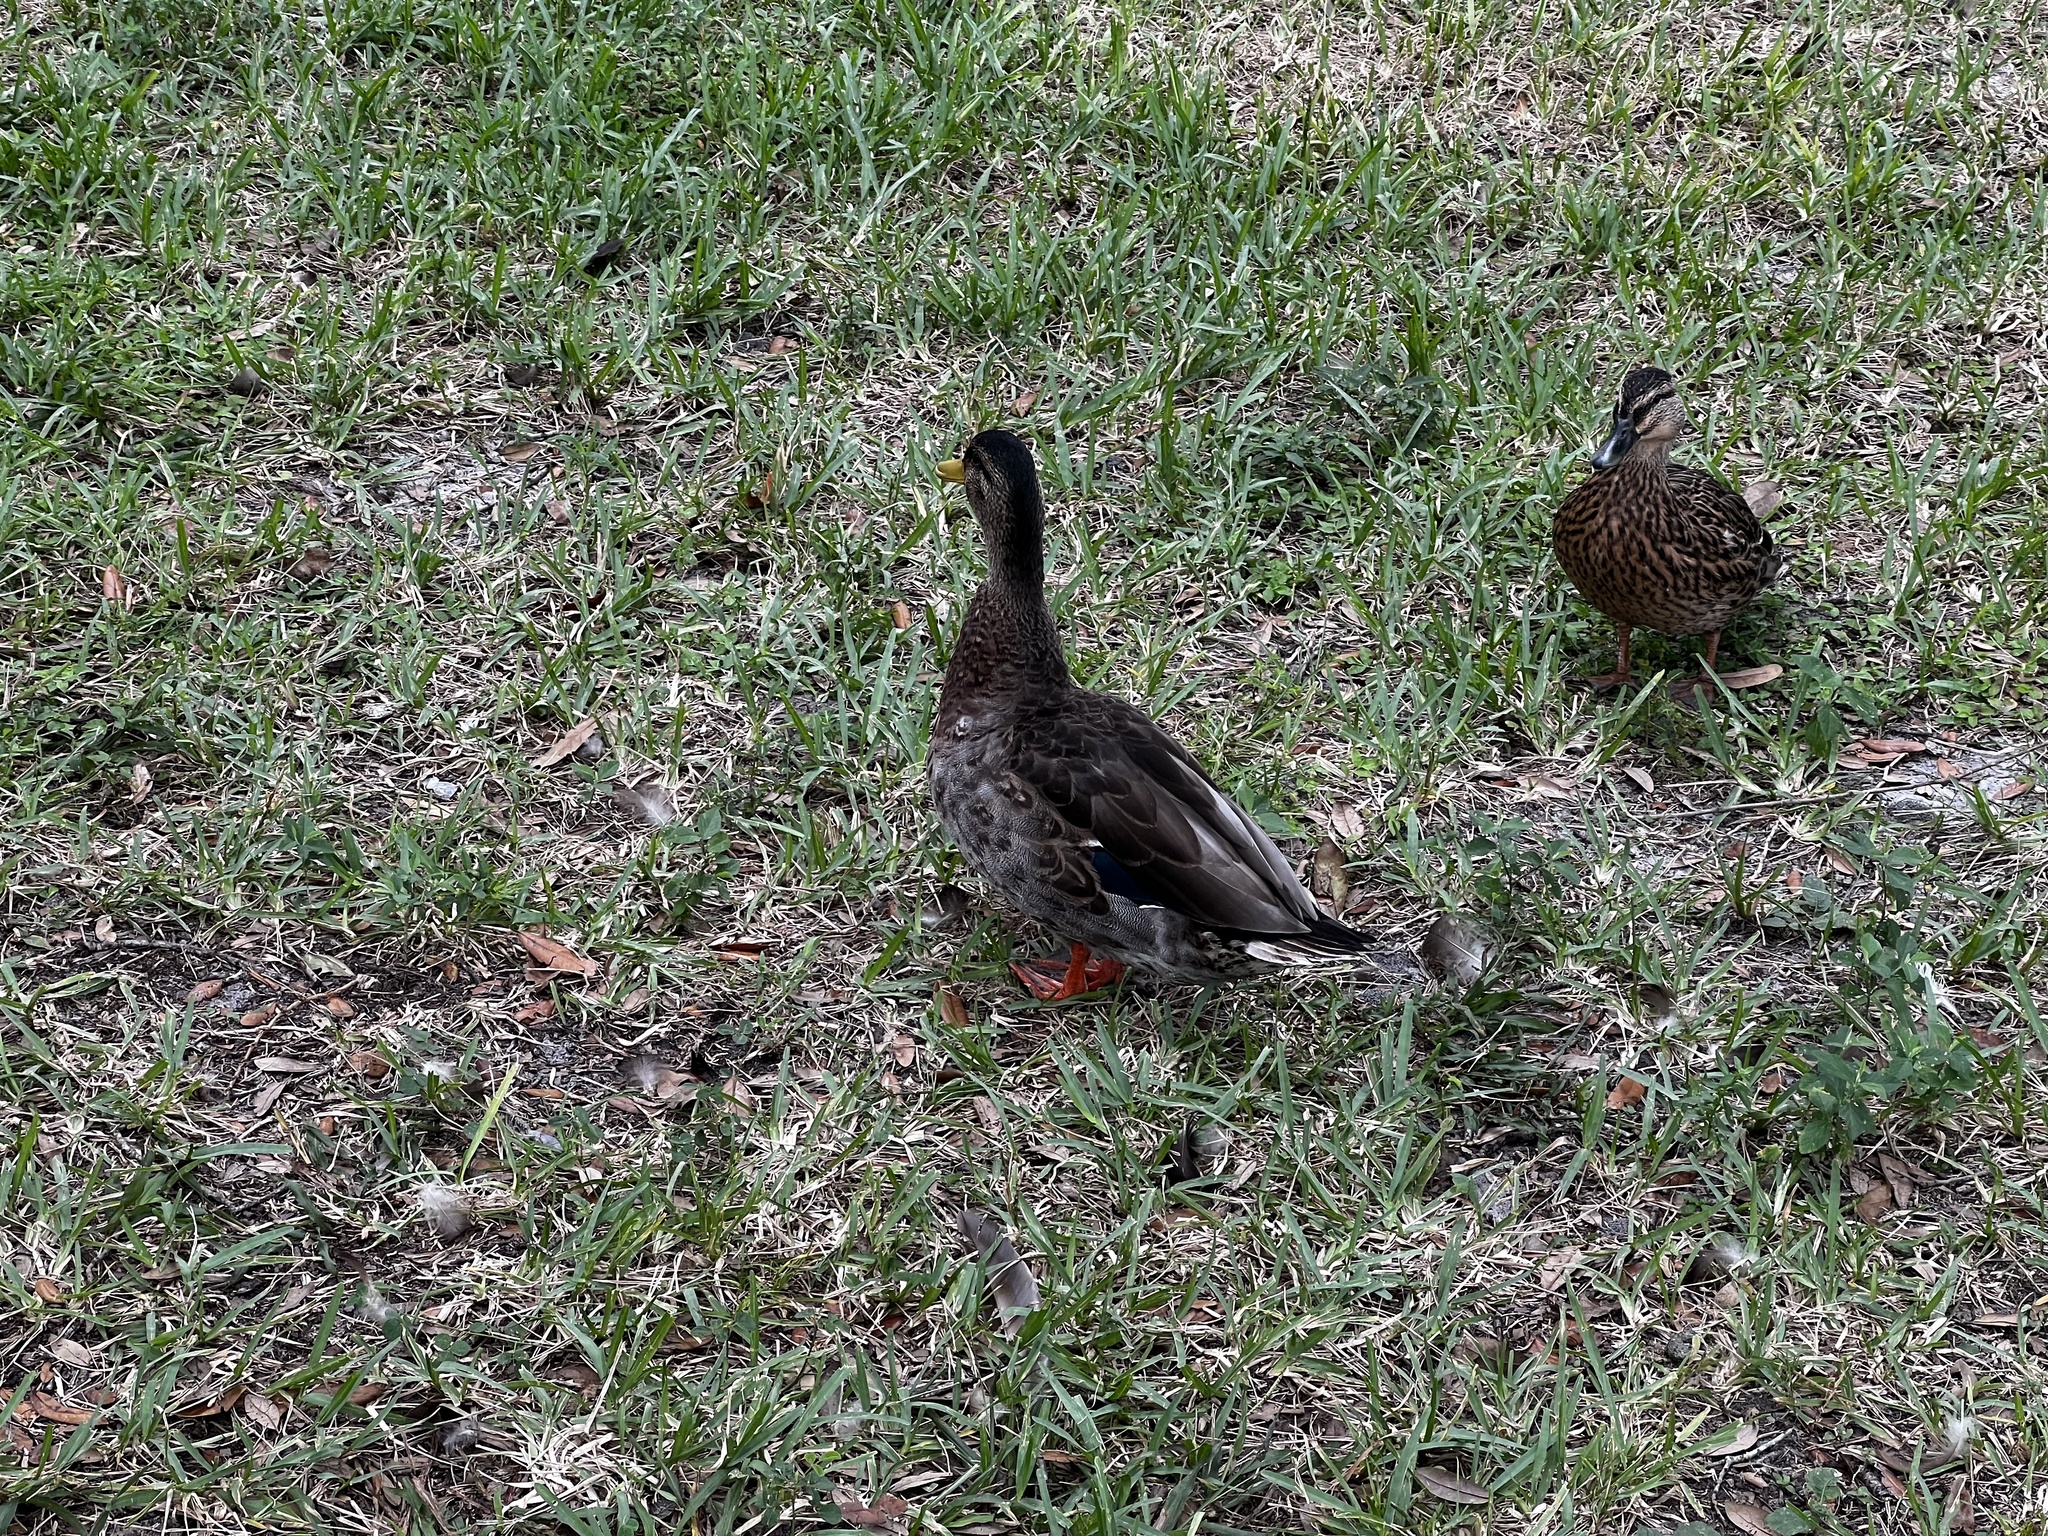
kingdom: Animalia
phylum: Chordata
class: Aves
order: Anseriformes
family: Anatidae
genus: Anas
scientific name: Anas platyrhynchos
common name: Mallard
